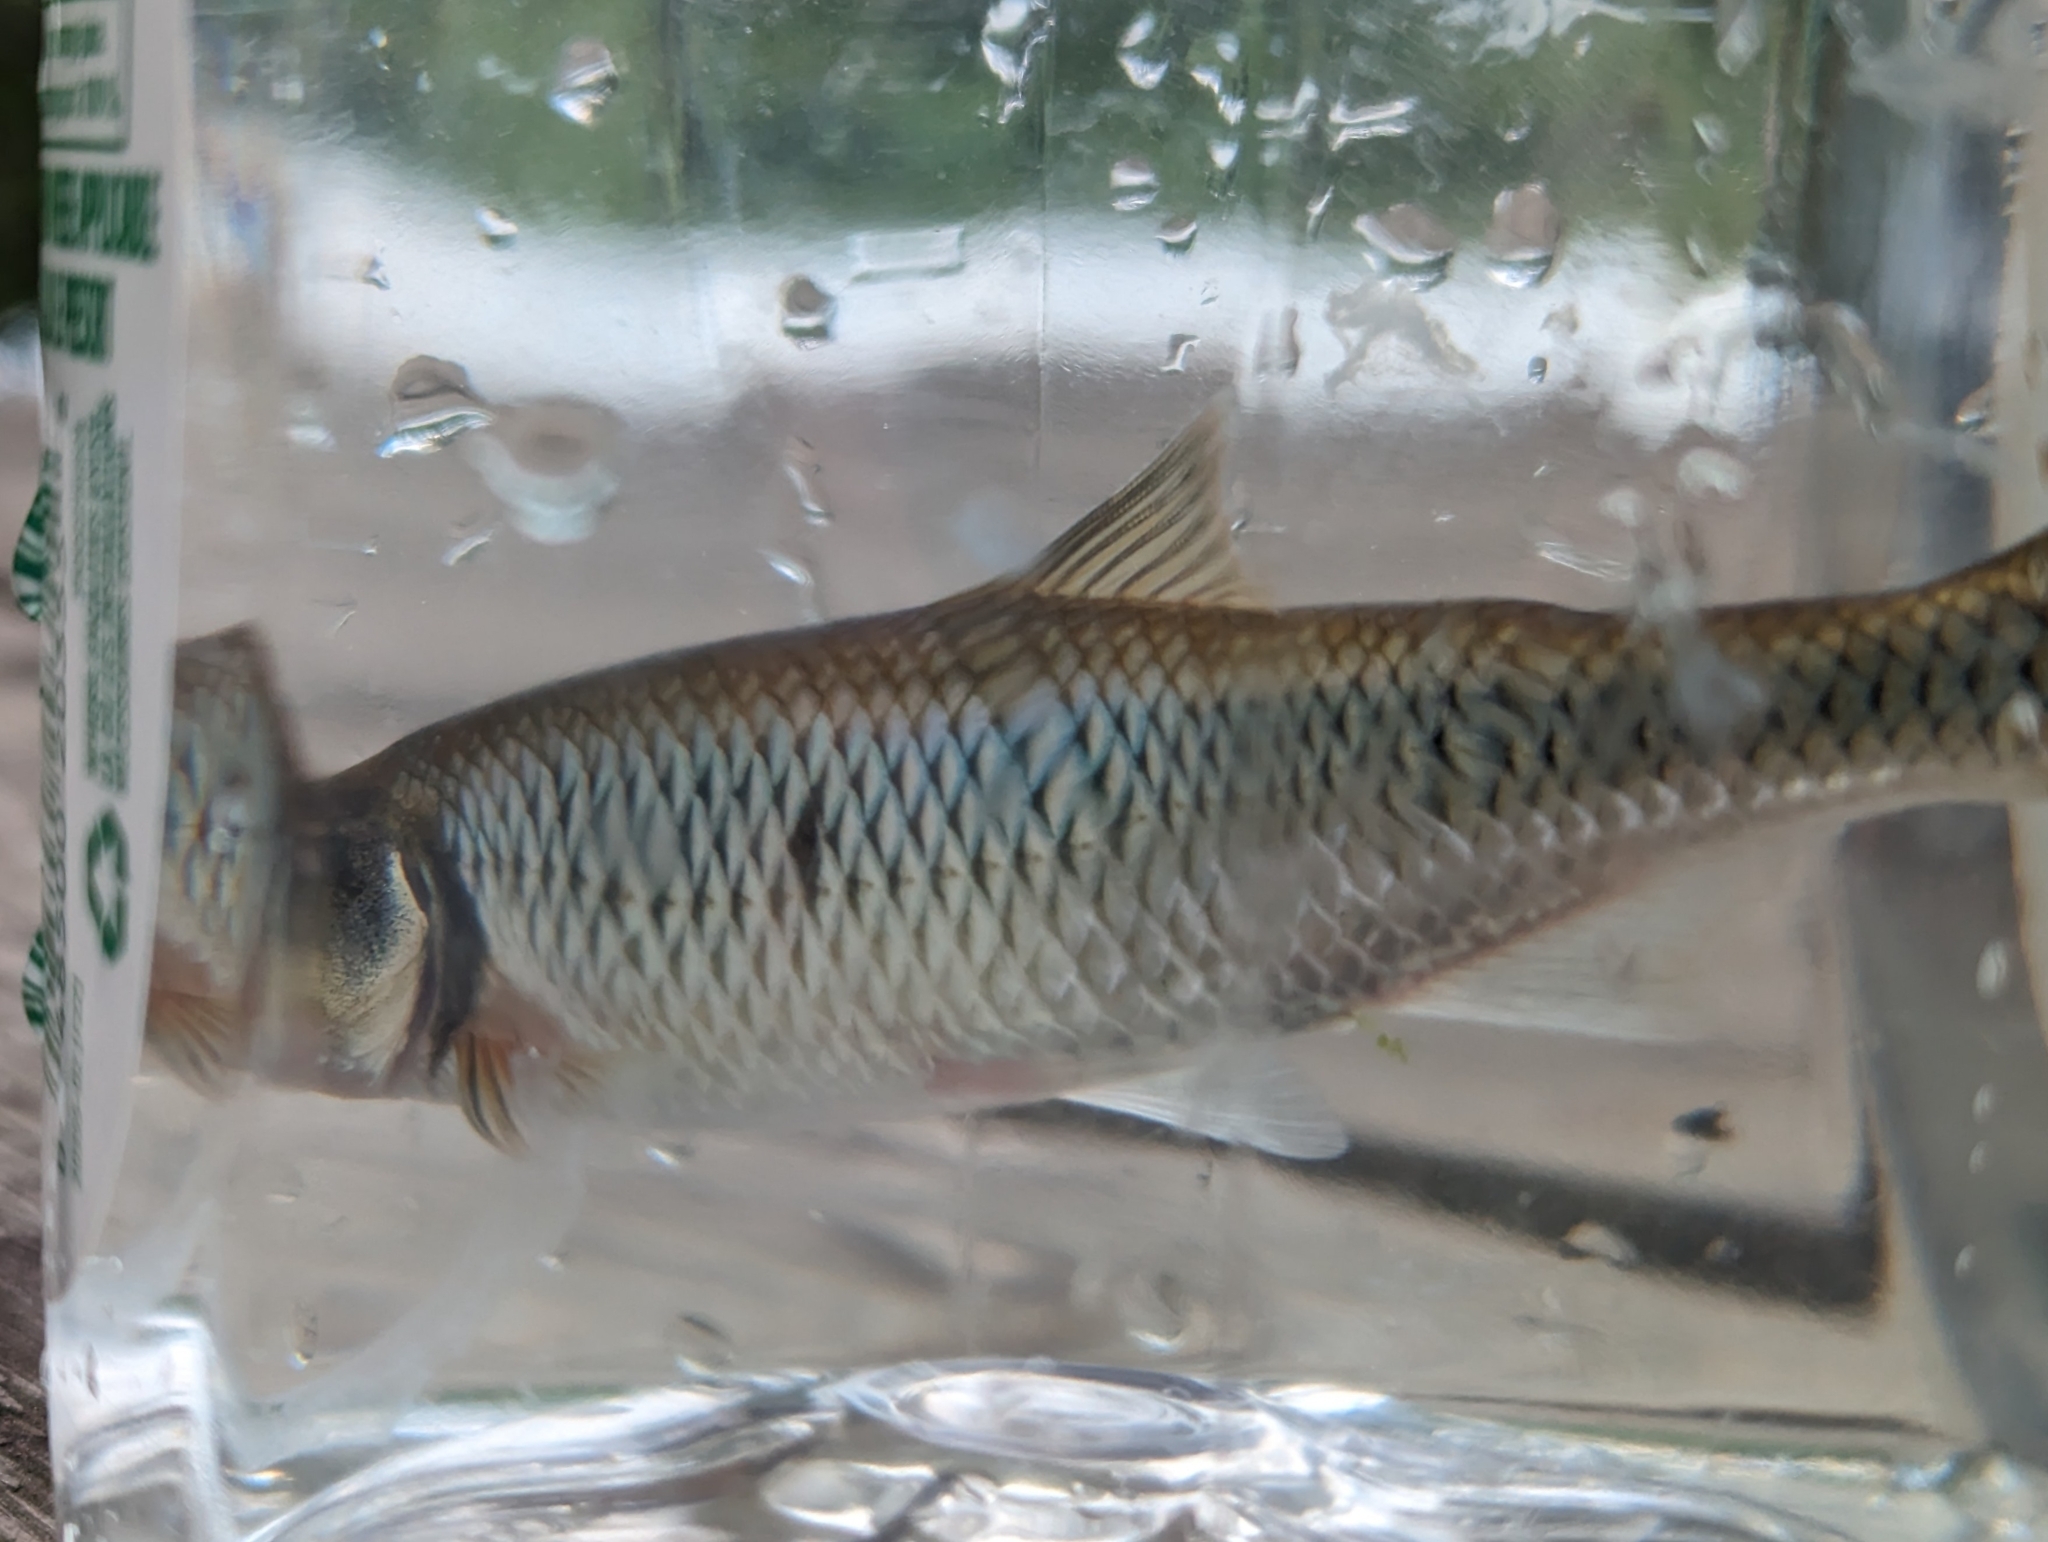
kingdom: Animalia
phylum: Chordata
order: Cypriniformes
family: Cyprinidae
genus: Luxilus
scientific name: Luxilus cornutus
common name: Common shiner
